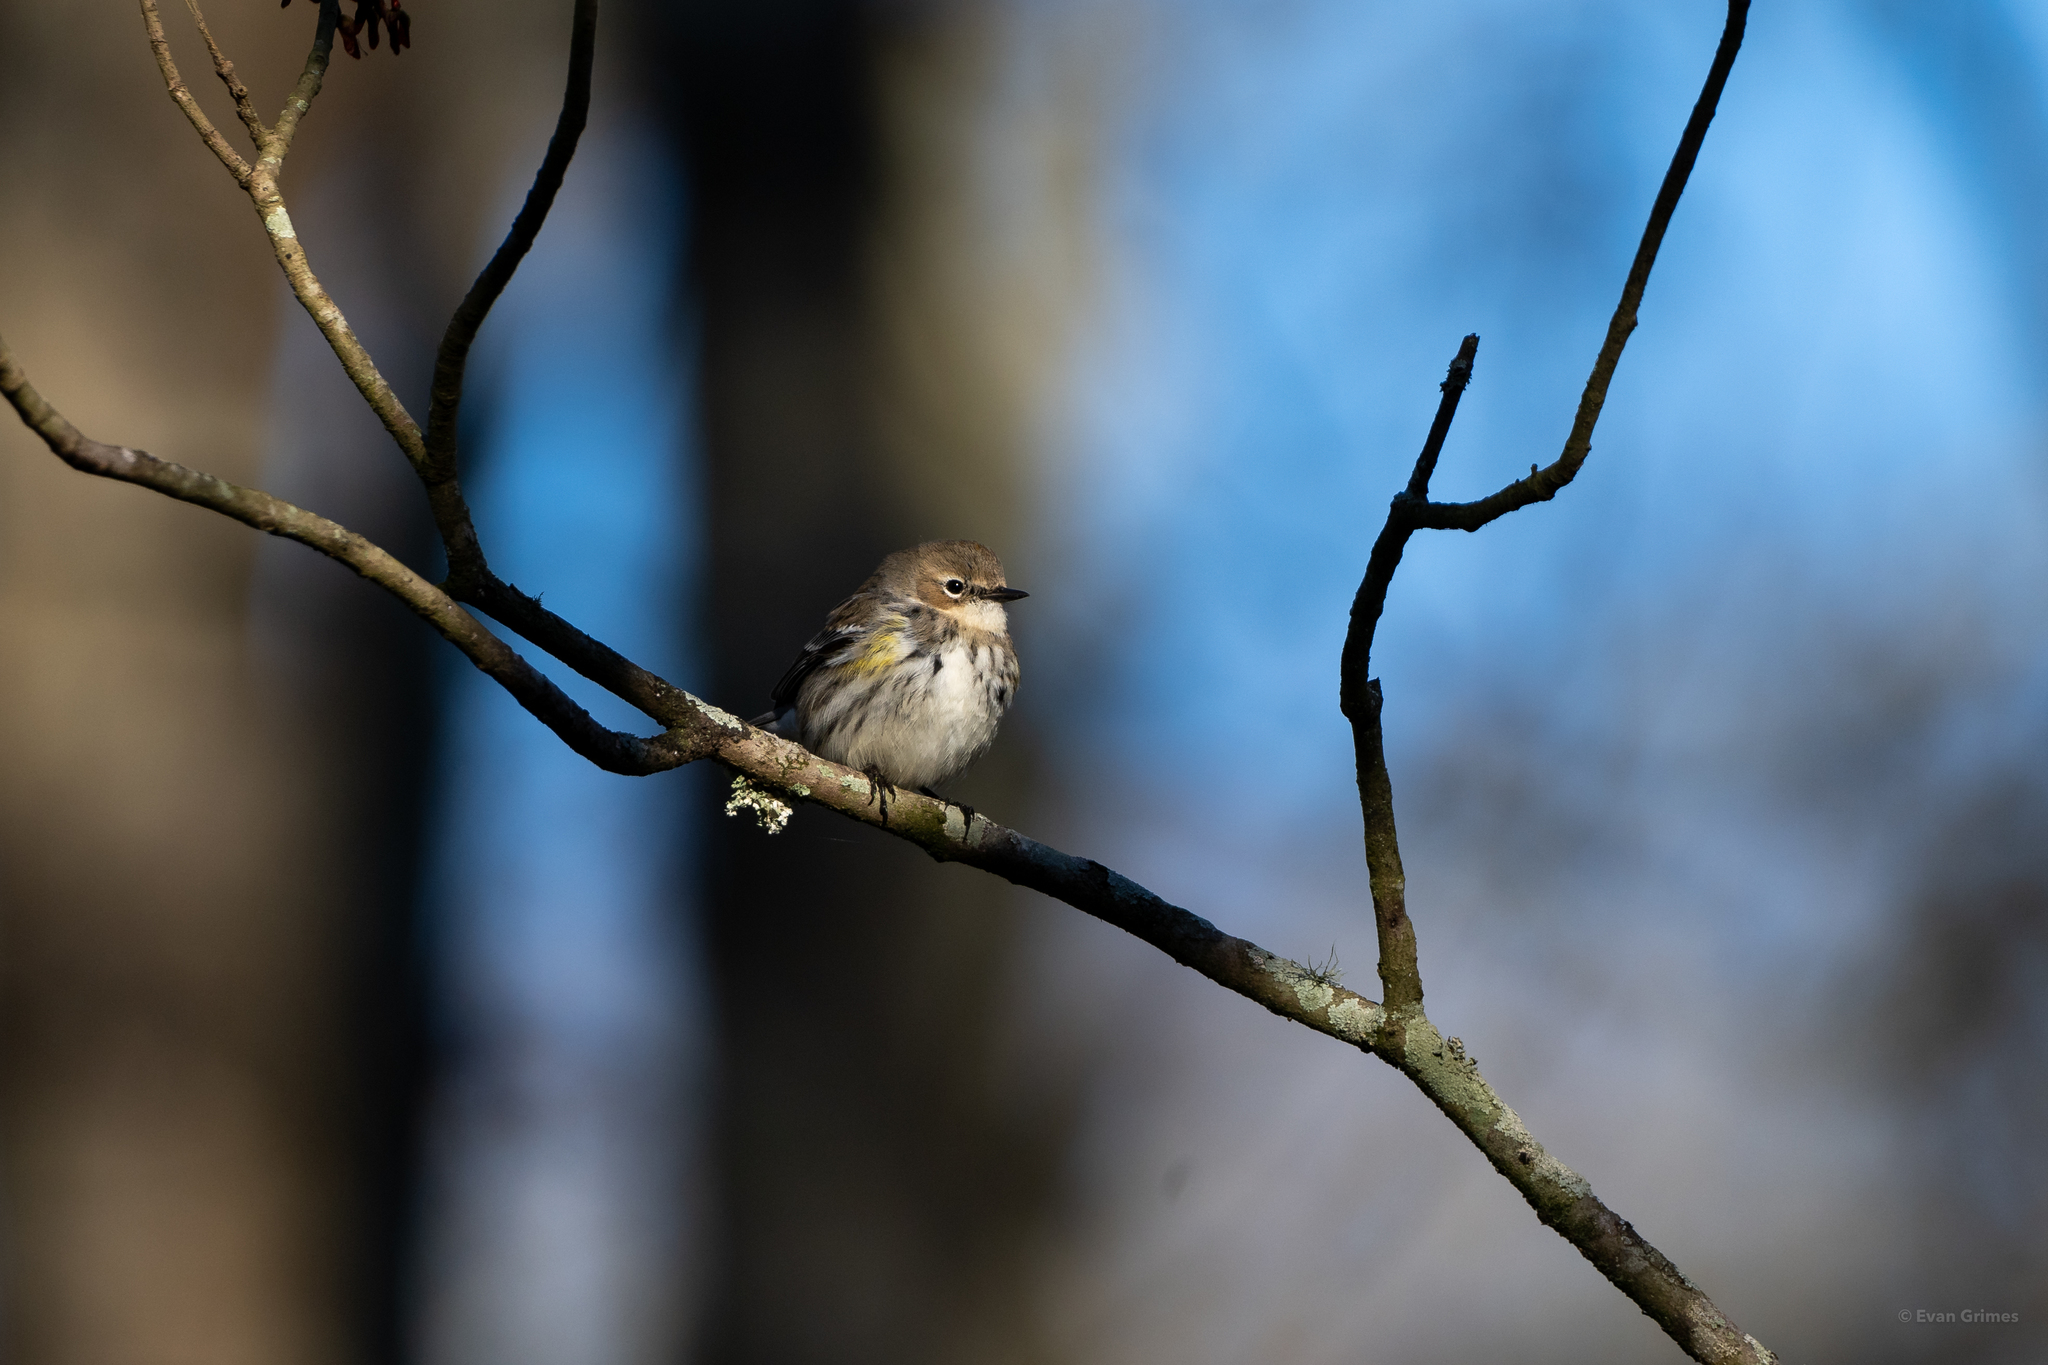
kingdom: Animalia
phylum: Chordata
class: Aves
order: Passeriformes
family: Parulidae
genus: Setophaga
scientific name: Setophaga coronata
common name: Myrtle warbler
